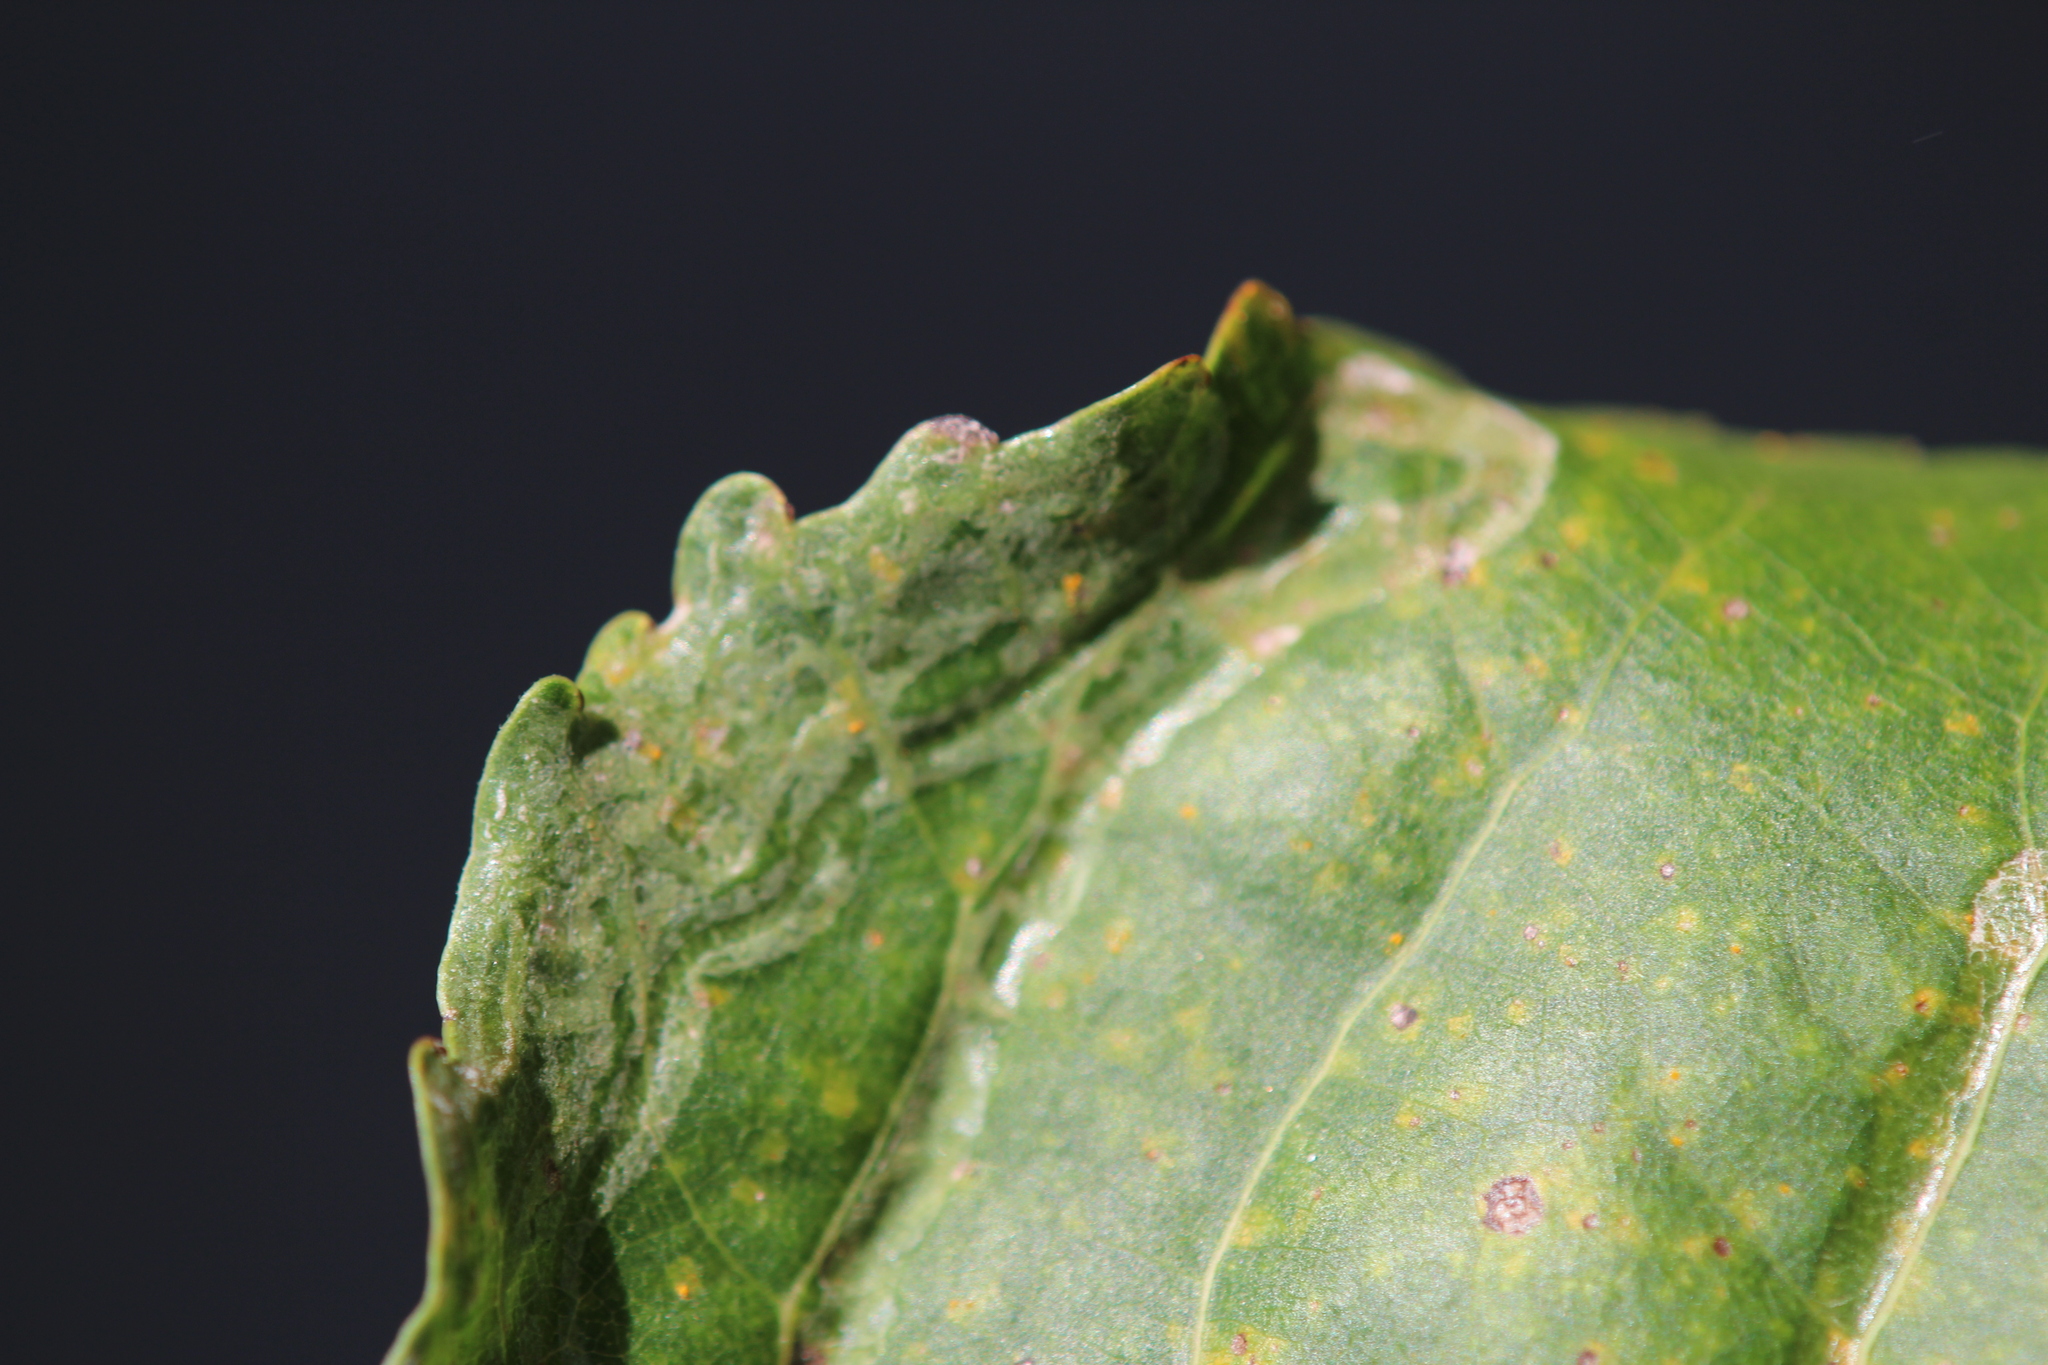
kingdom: Animalia
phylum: Arthropoda
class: Insecta
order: Lepidoptera
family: Gracillariidae
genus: Phyllocnistis
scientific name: Phyllocnistis populiella
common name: Aspen serpentine leafminer moth
